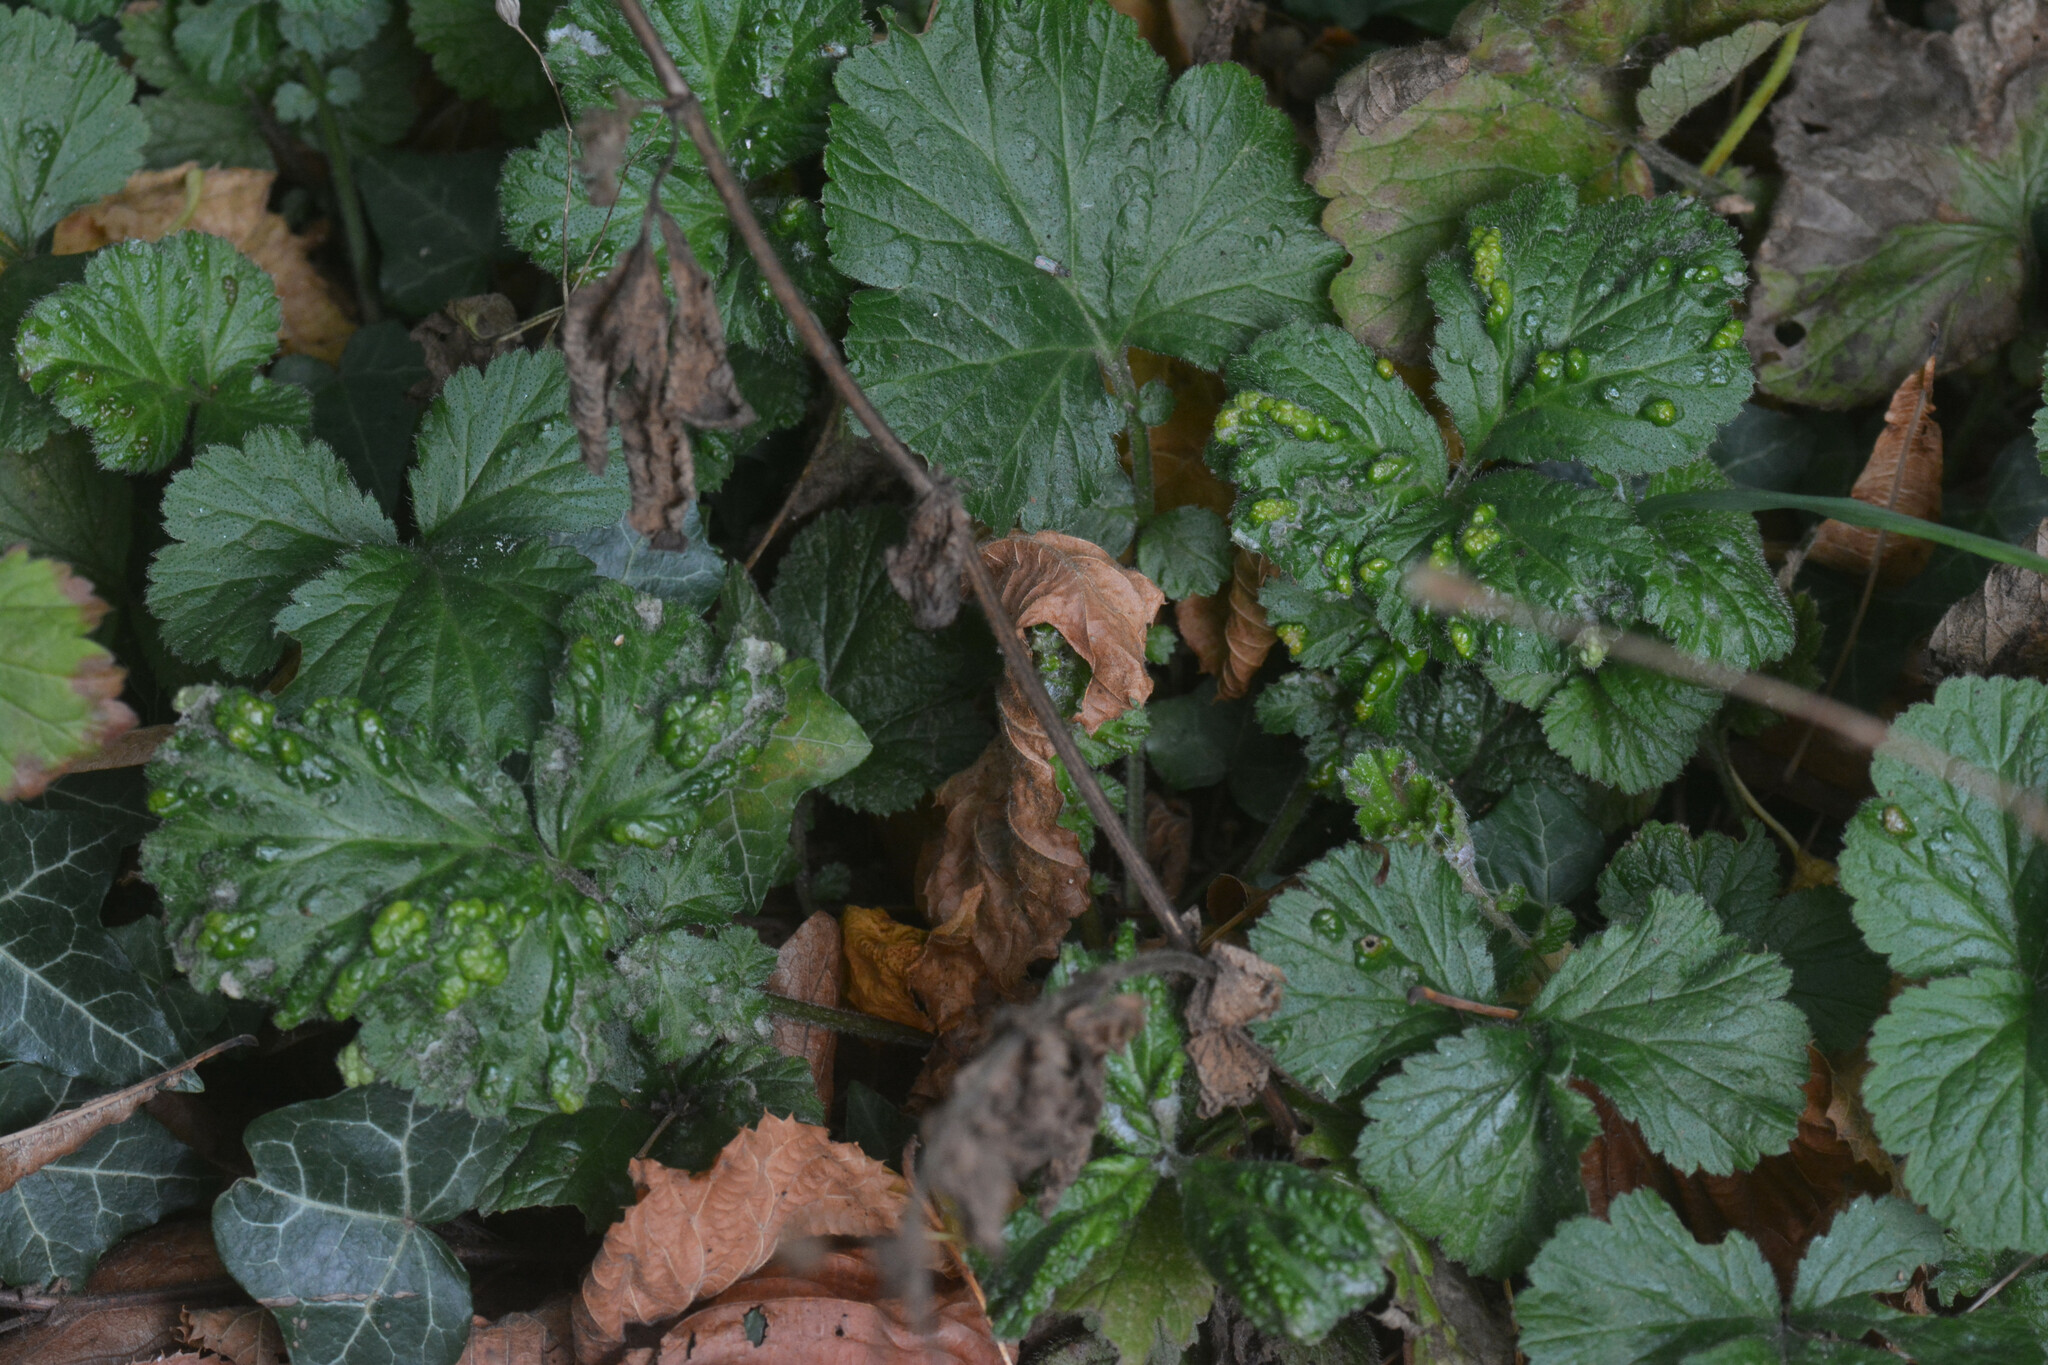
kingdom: Animalia
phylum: Arthropoda
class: Arachnida
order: Trombidiformes
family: Eriophyidae
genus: Cecidophyes
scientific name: Cecidophyes nudus
